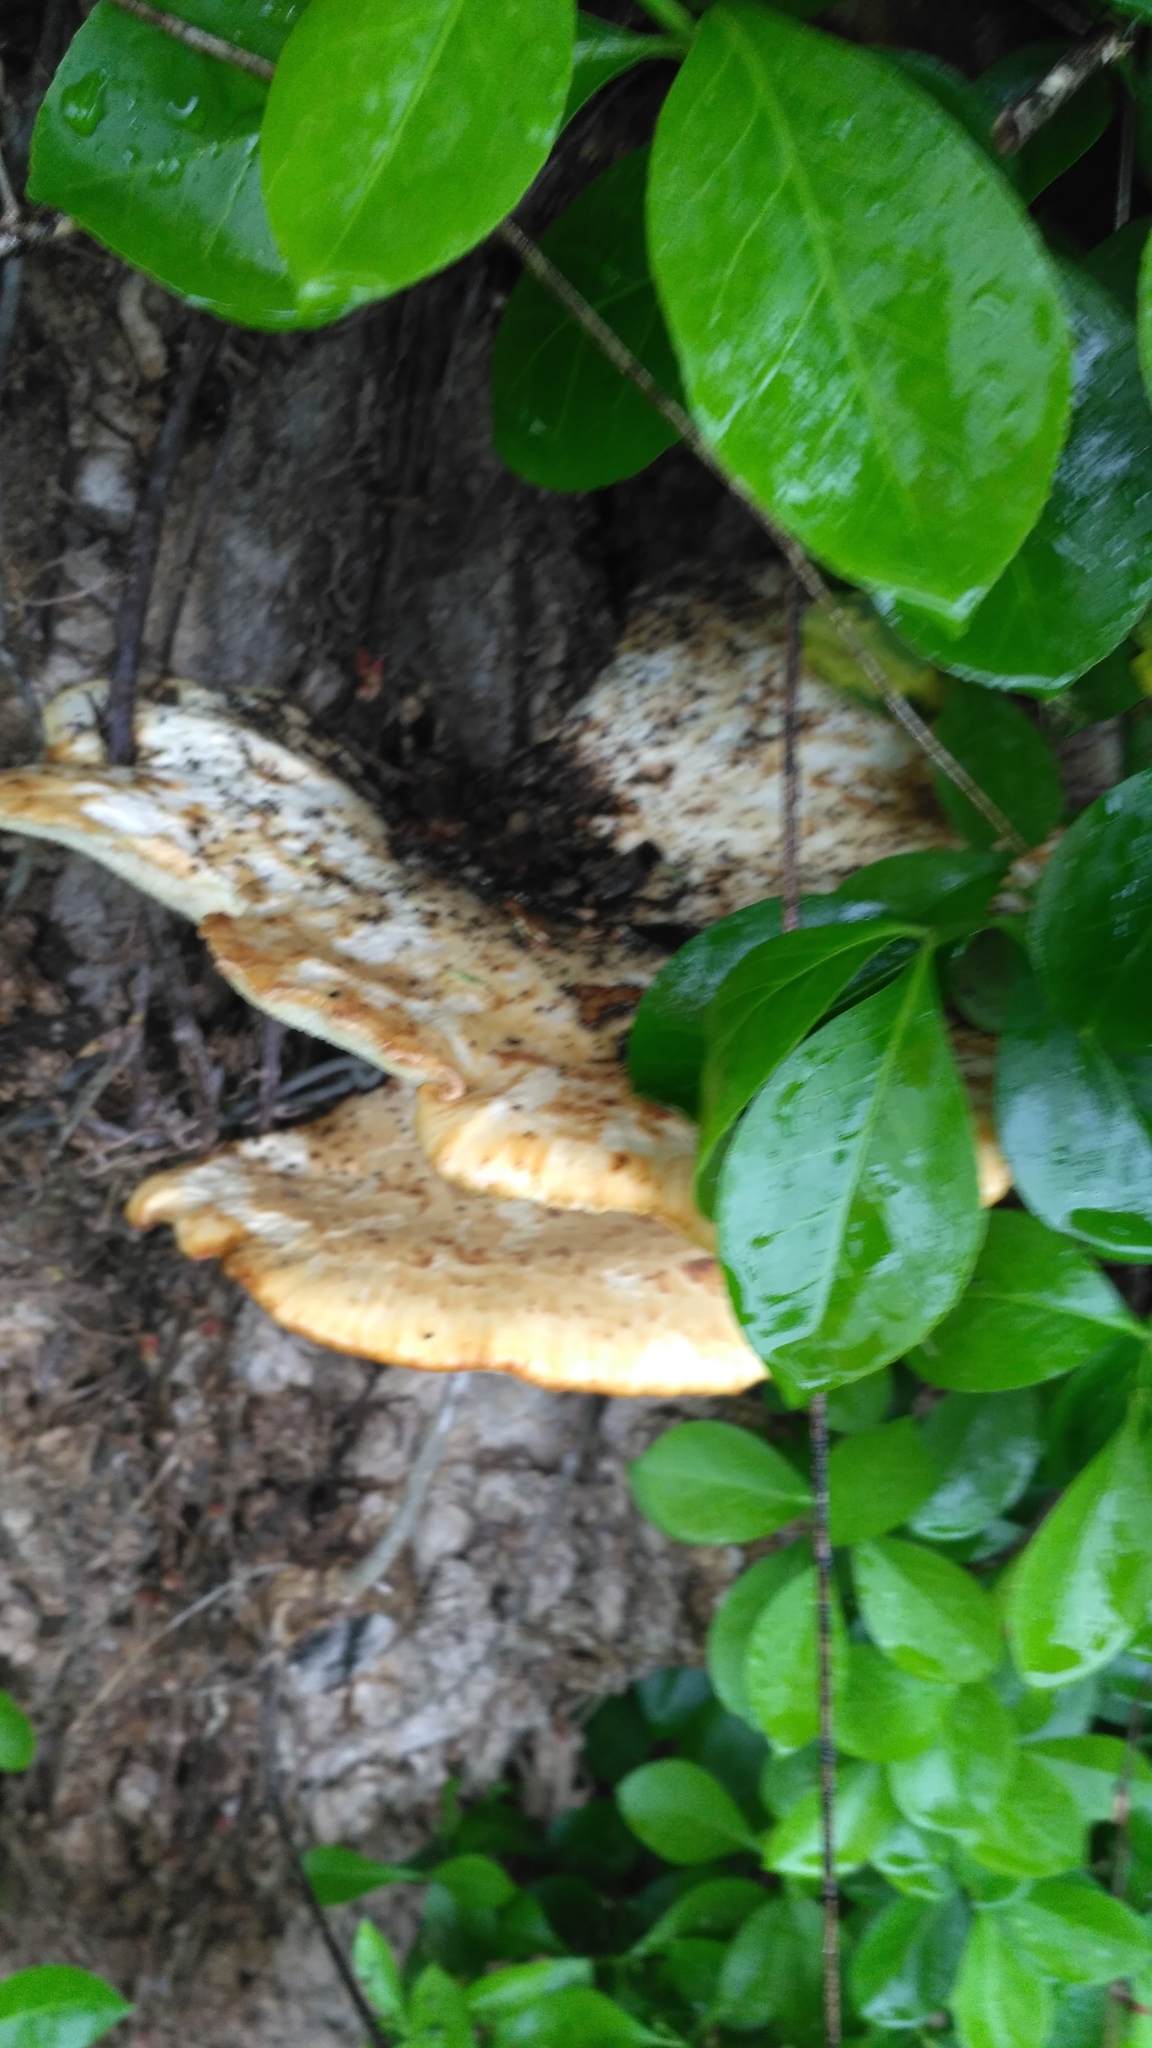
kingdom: Fungi
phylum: Basidiomycota
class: Agaricomycetes
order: Polyporales
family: Polyporaceae
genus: Cerioporus
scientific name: Cerioporus squamosus
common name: Dryad's saddle
